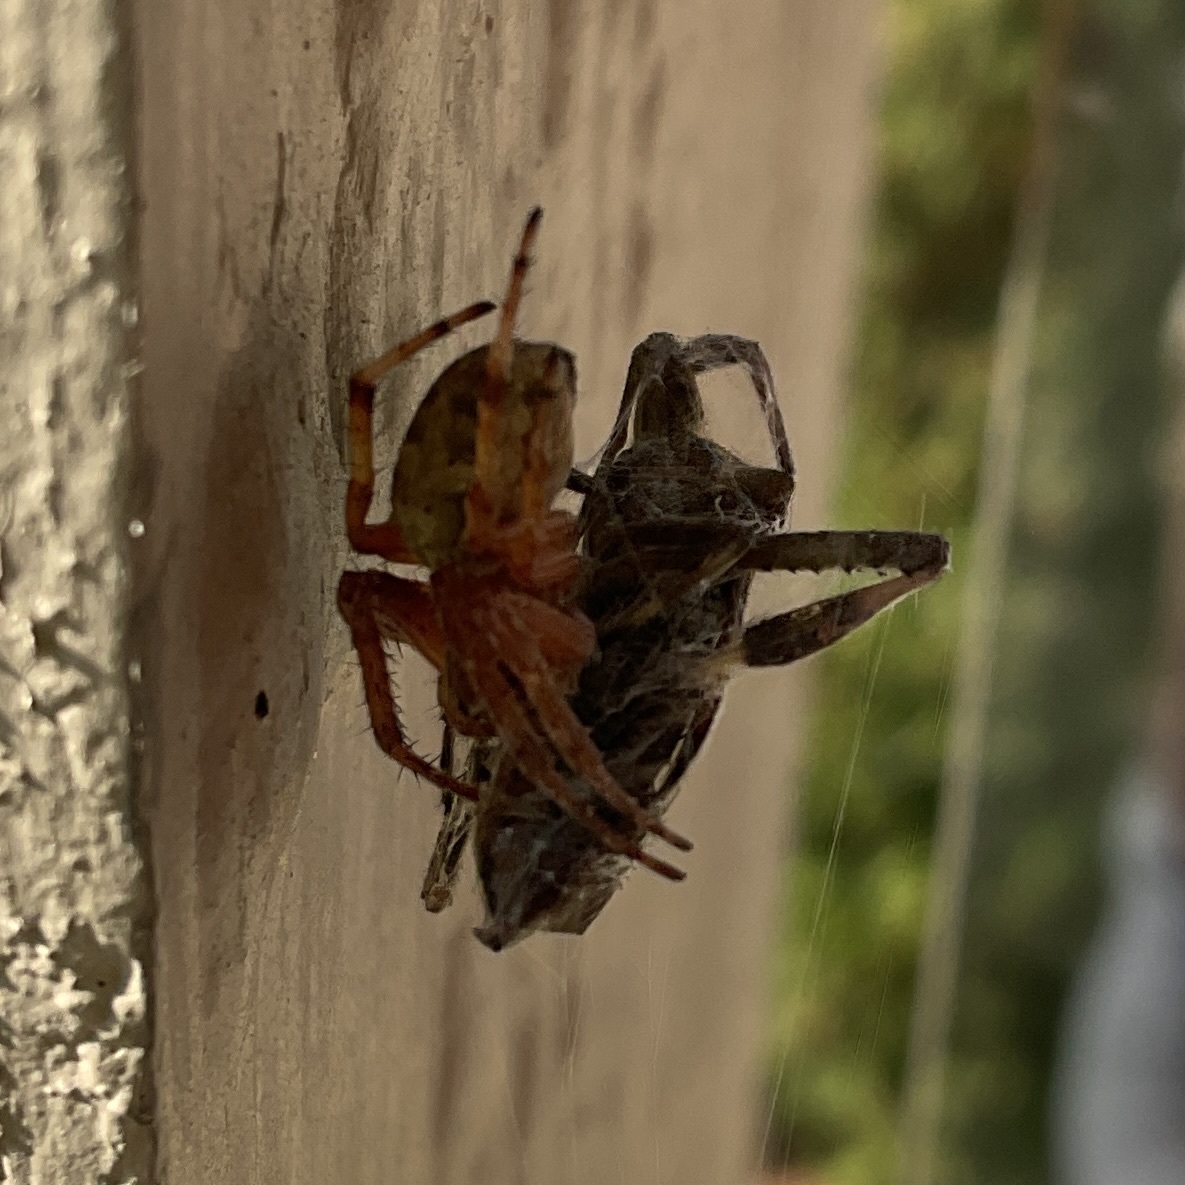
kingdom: Animalia
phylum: Arthropoda
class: Insecta
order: Hemiptera
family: Coreidae
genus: Leptoglossus
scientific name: Leptoglossus occidentalis
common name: Western conifer-seed bug
